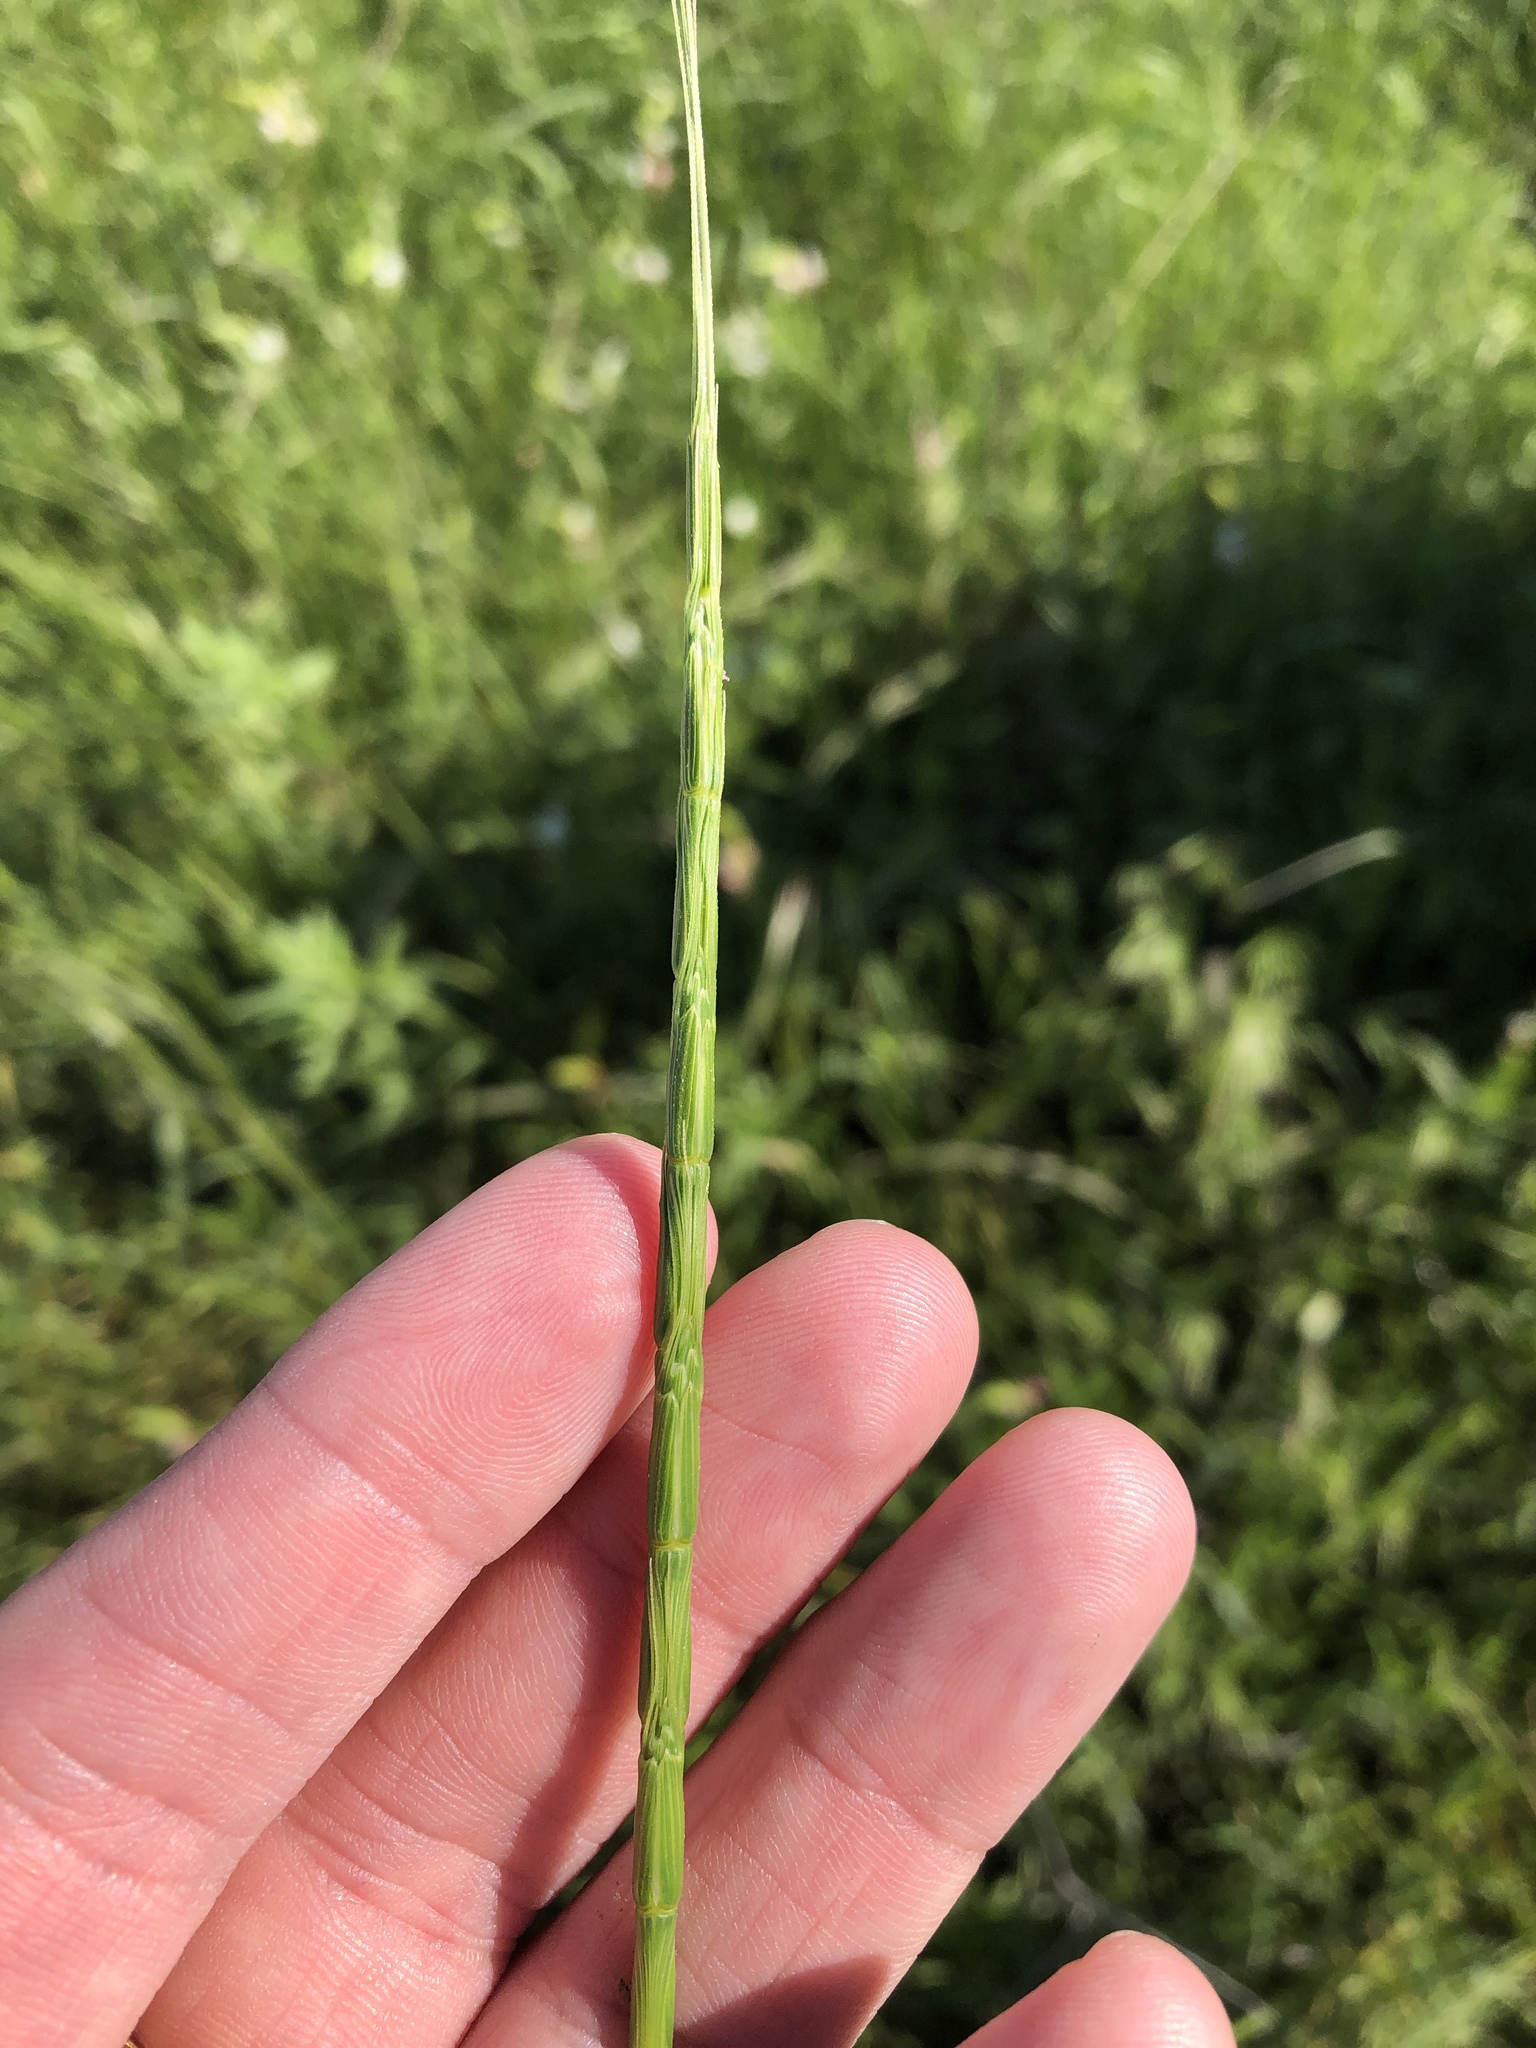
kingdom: Plantae
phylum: Tracheophyta
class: Liliopsida
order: Poales
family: Poaceae
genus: Aegilops
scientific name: Aegilops cylindrica
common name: Jointed goatgrass
